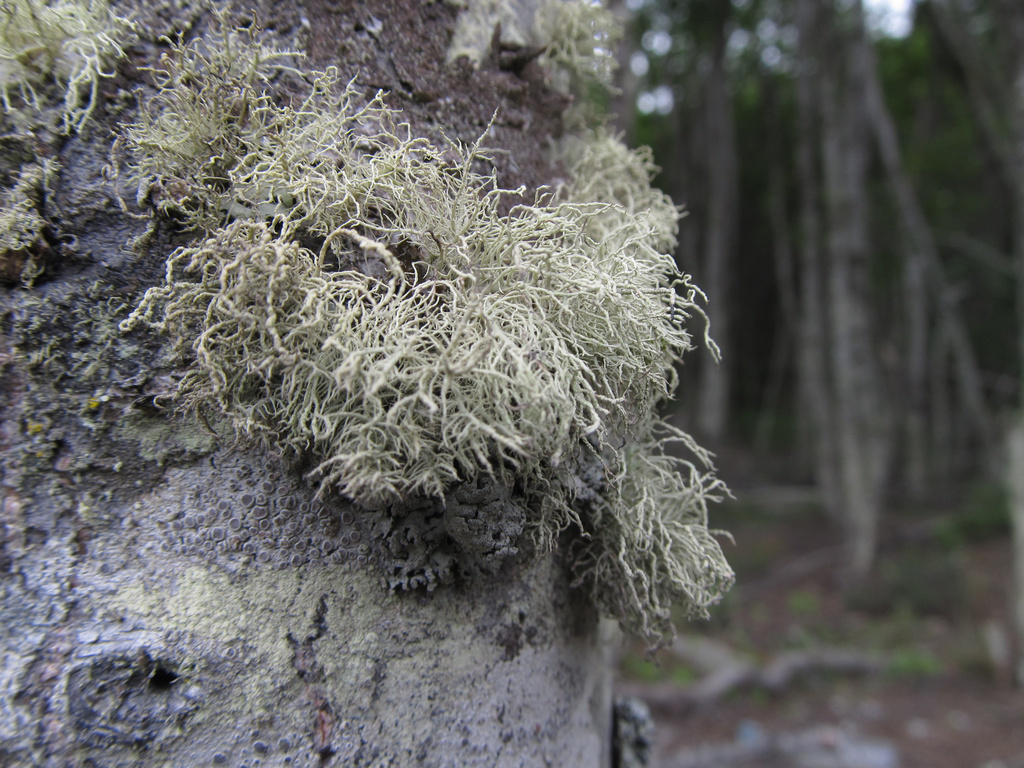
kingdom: Fungi
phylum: Ascomycota
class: Lecanoromycetes
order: Lecanorales
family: Parmeliaceae
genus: Usnea
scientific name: Usnea
